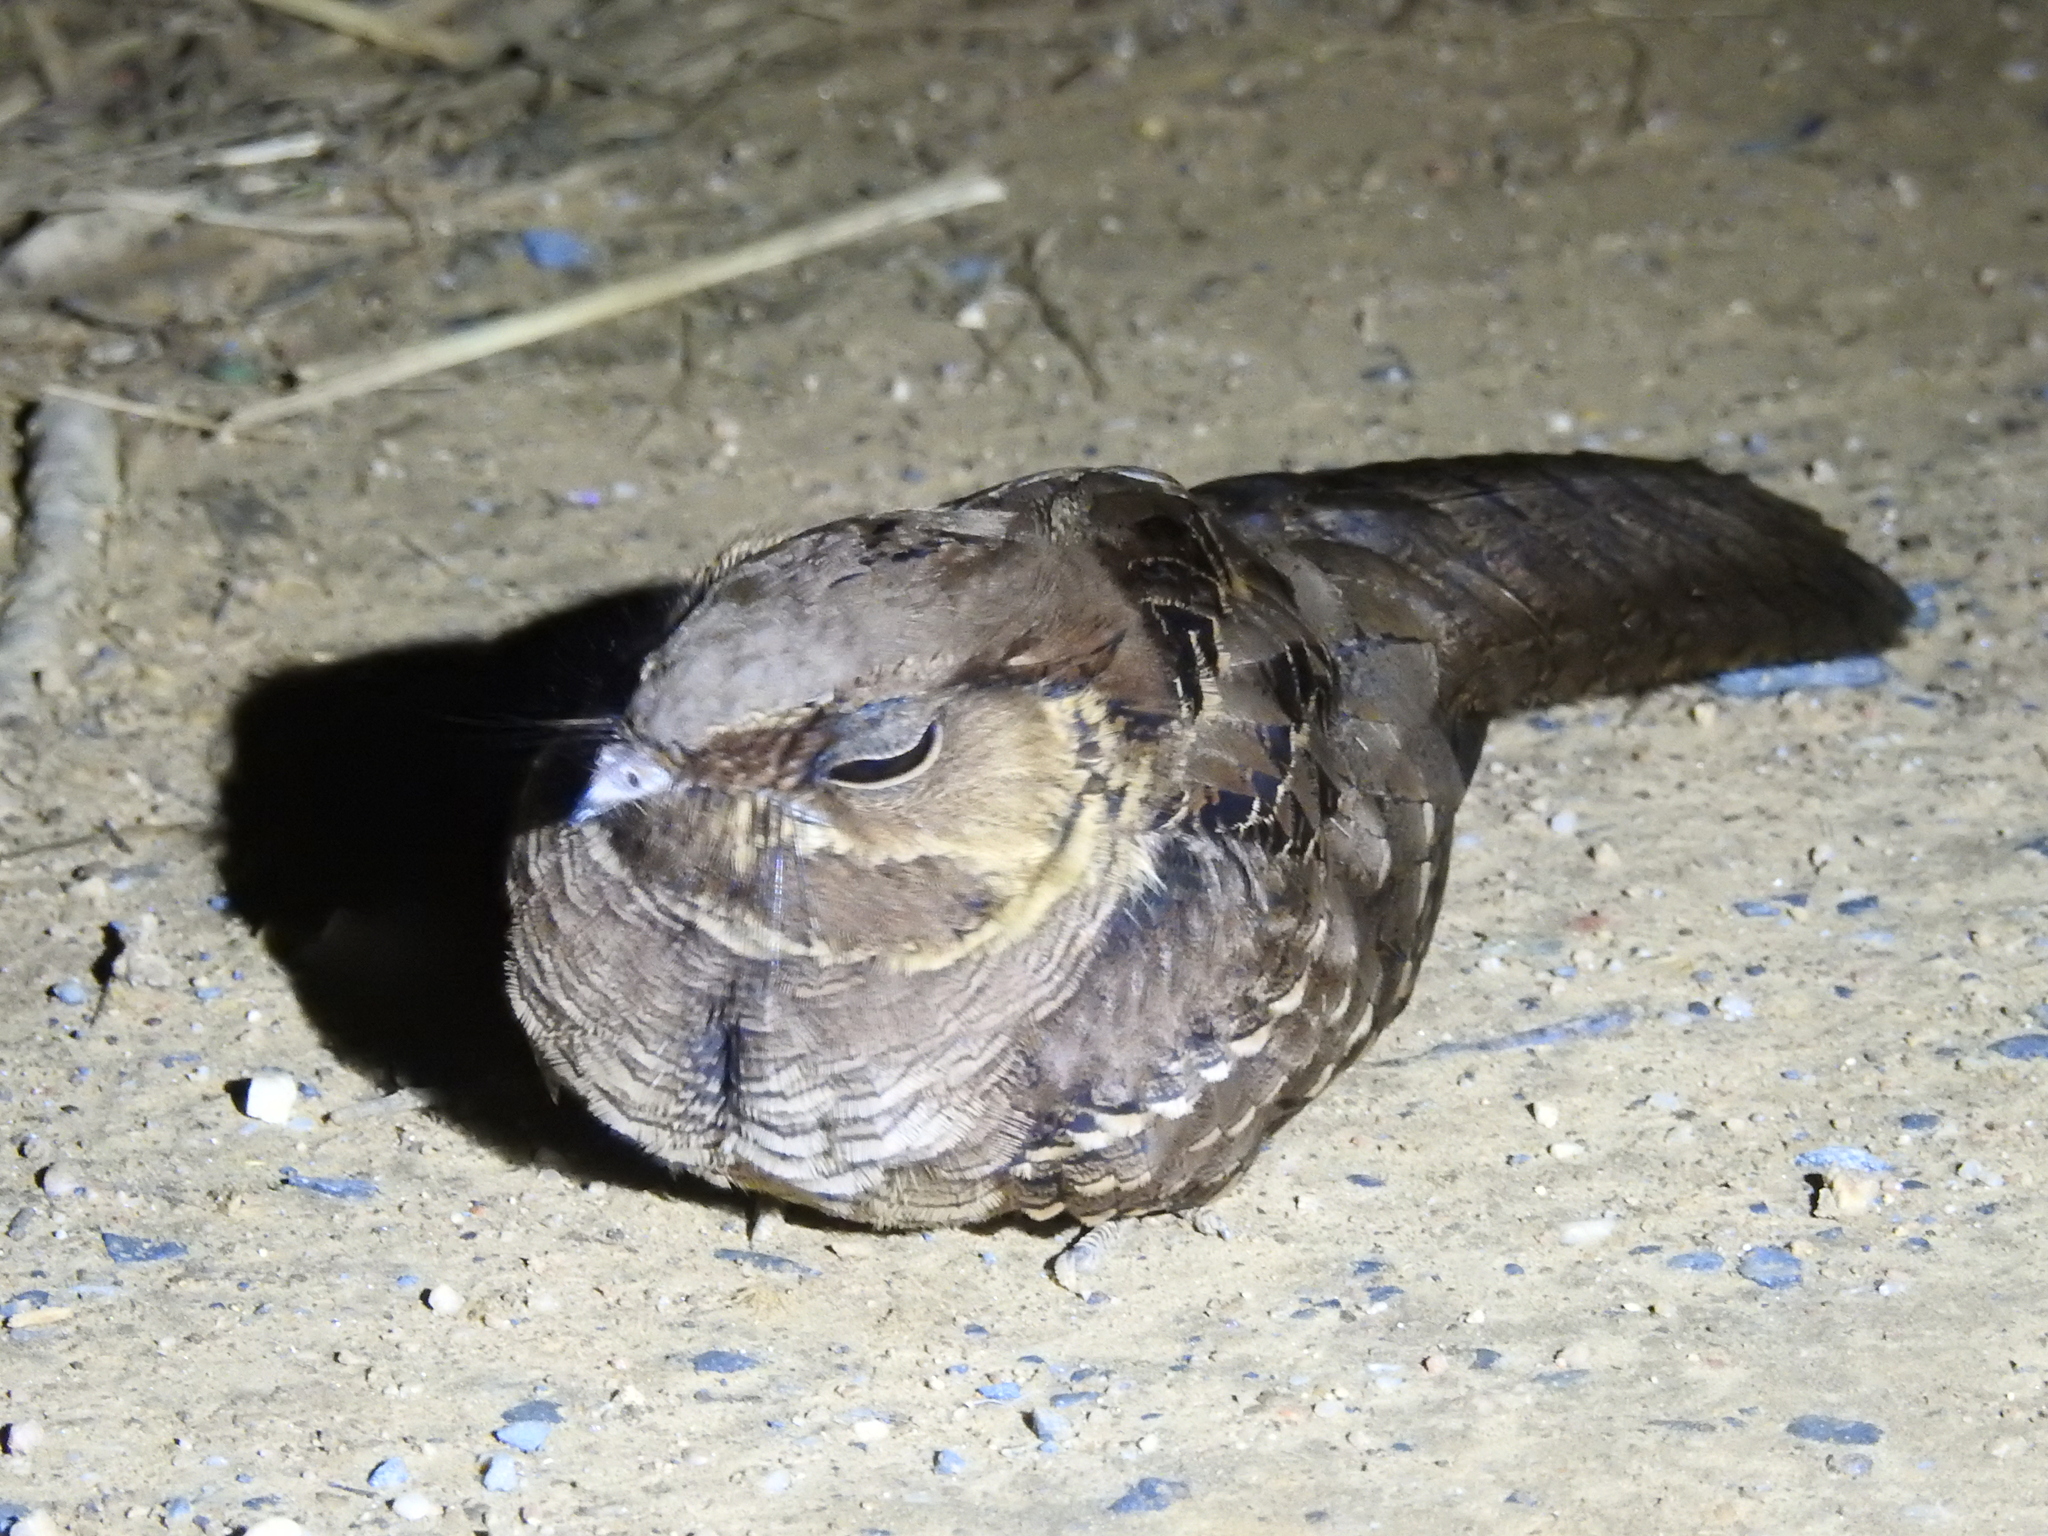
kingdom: Animalia
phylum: Chordata
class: Aves
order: Caprimulgiformes
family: Caprimulgidae
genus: Nyctidromus
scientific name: Nyctidromus albicollis
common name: Pauraque
